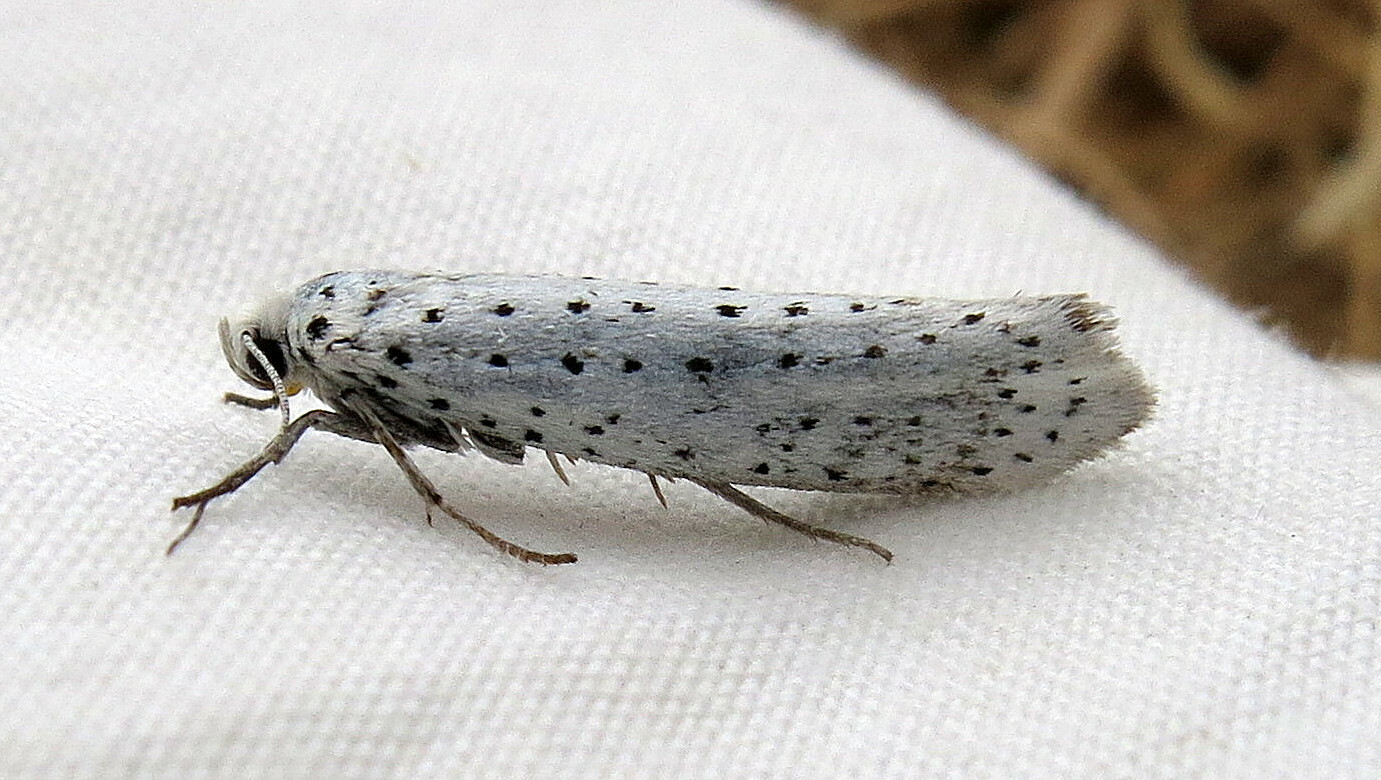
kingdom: Animalia
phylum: Arthropoda
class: Insecta
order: Lepidoptera
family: Yponomeutidae
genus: Yponomeuta
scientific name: Yponomeuta evonymella
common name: Bird-cherry ermine
